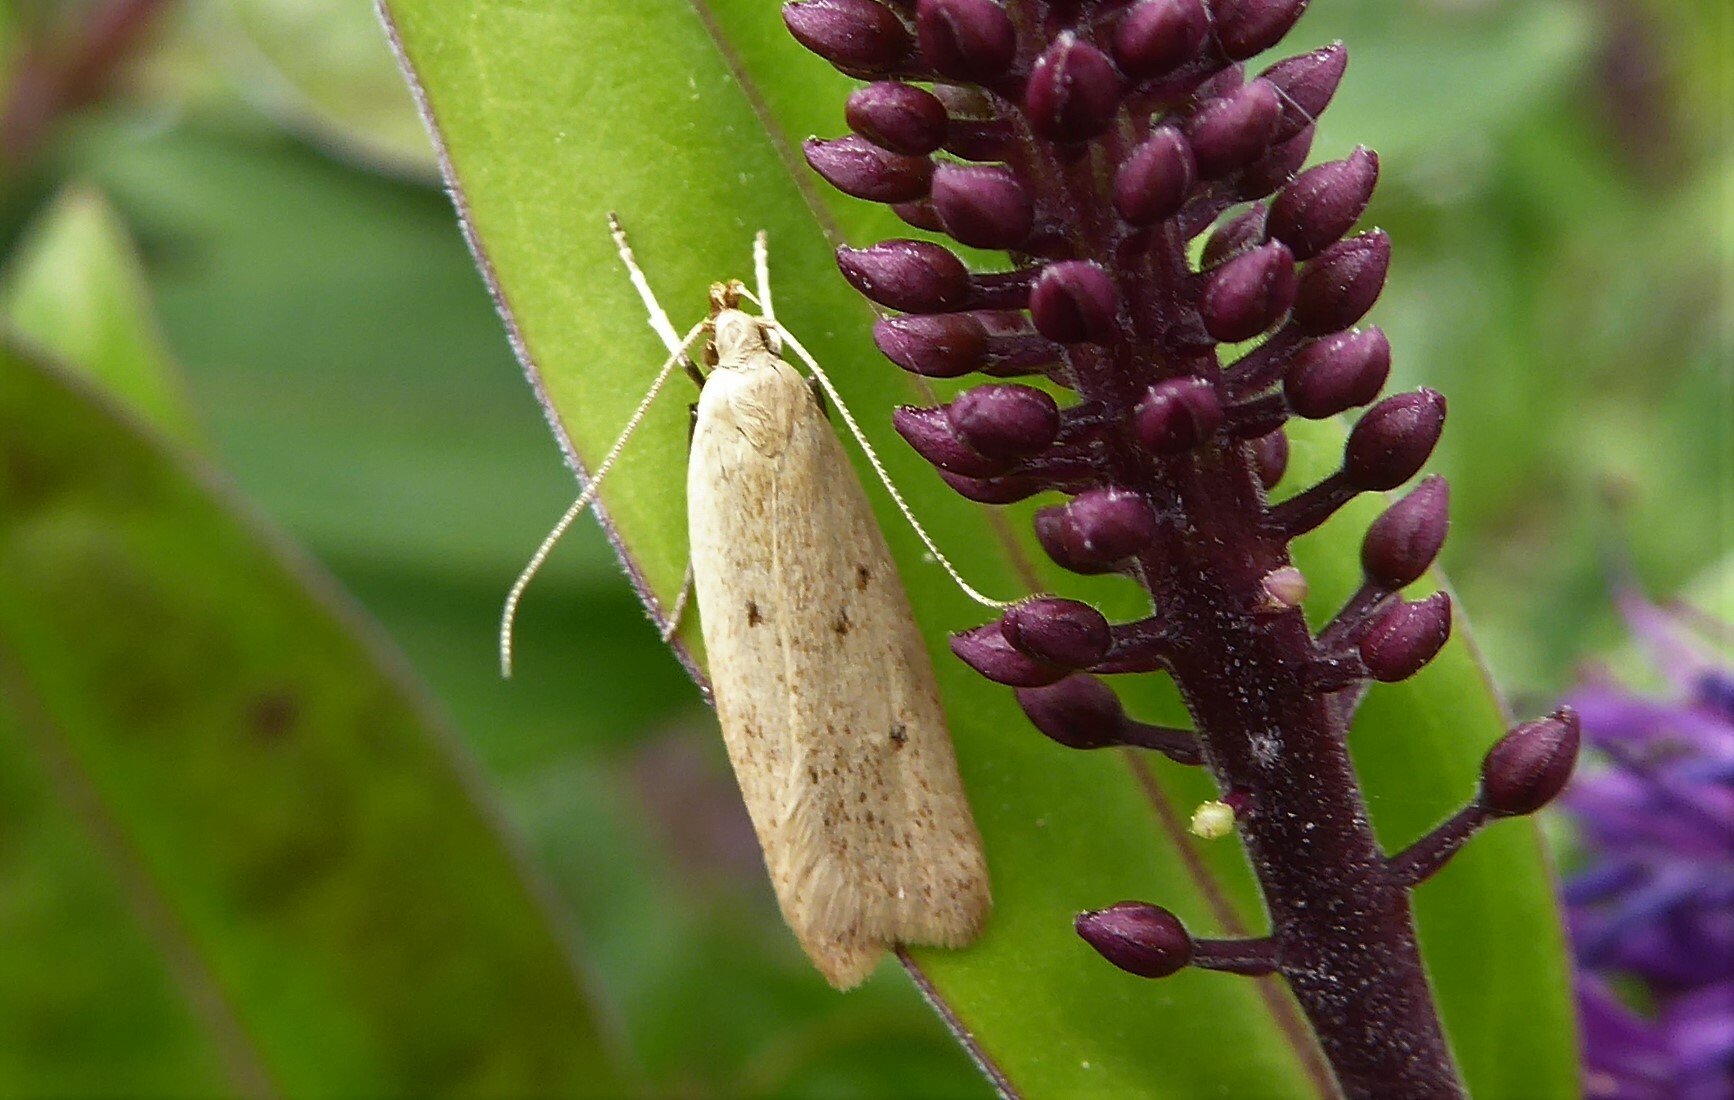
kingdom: Animalia
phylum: Arthropoda
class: Insecta
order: Lepidoptera
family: Oecophoridae
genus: Gymnobathra
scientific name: Gymnobathra sarcoxantha
